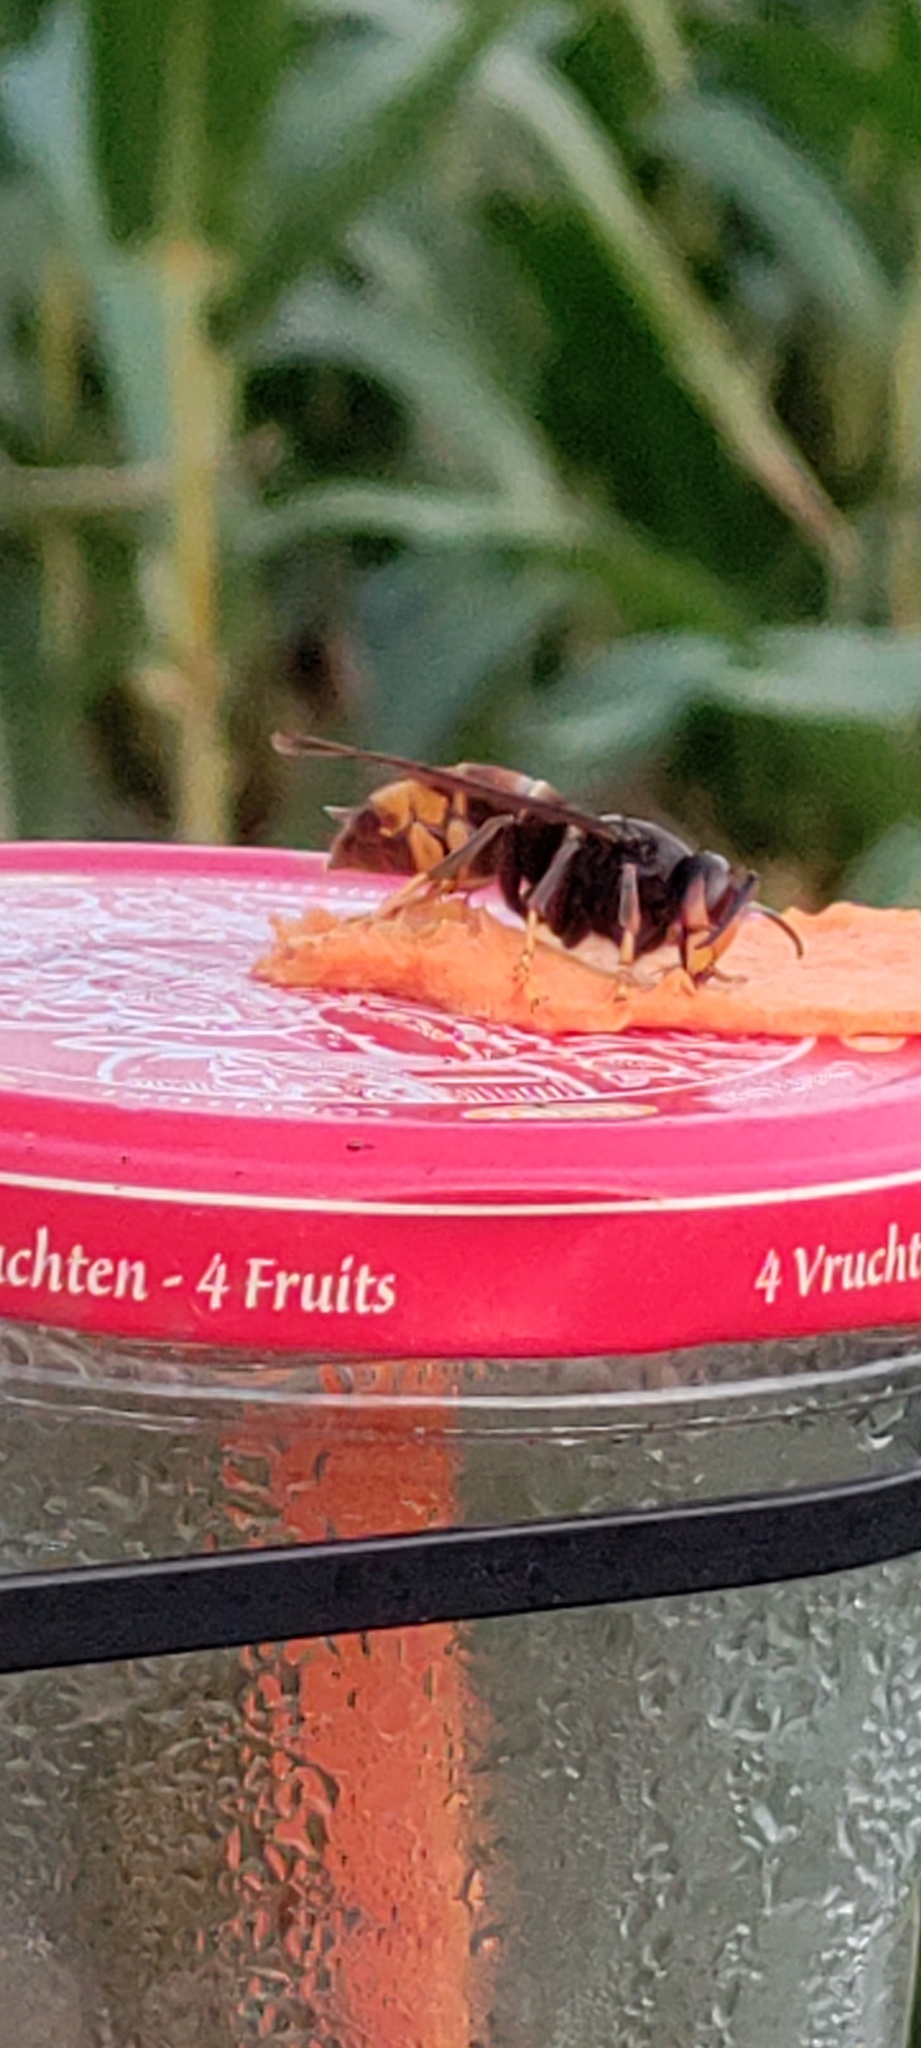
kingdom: Animalia
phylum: Arthropoda
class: Insecta
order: Hymenoptera
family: Vespidae
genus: Vespa
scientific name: Vespa velutina
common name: Asian hornet
